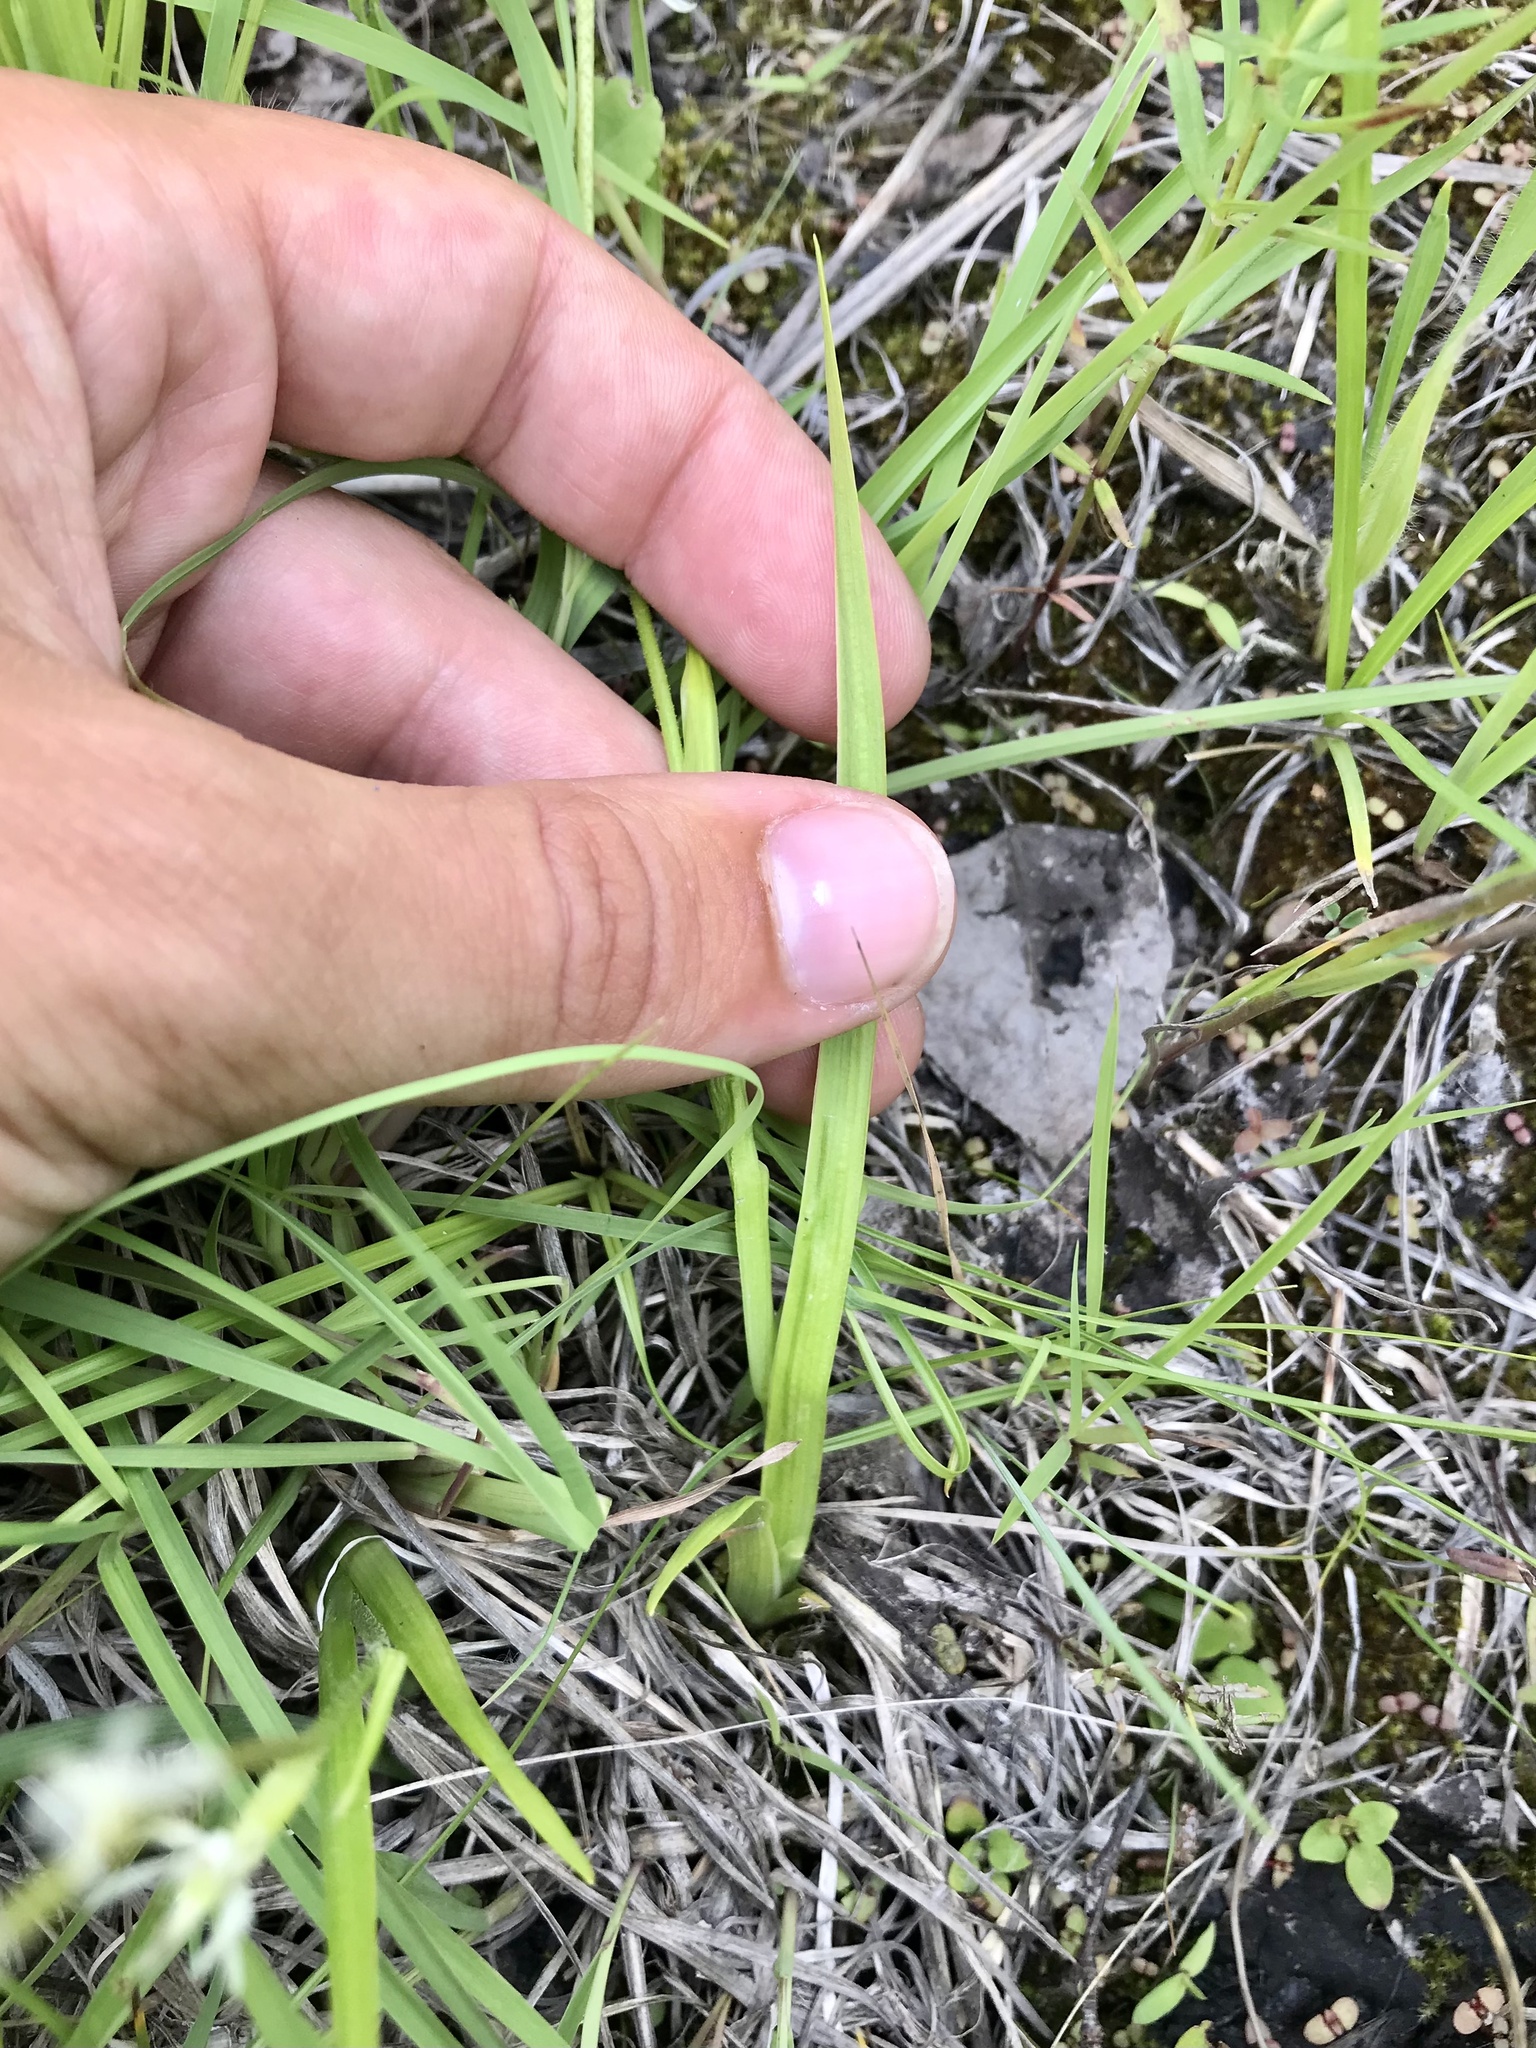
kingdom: Plantae
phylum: Tracheophyta
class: Liliopsida
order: Alismatales
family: Tofieldiaceae
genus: Triantha
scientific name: Triantha glutinosa
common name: Glutinous tofieldia
